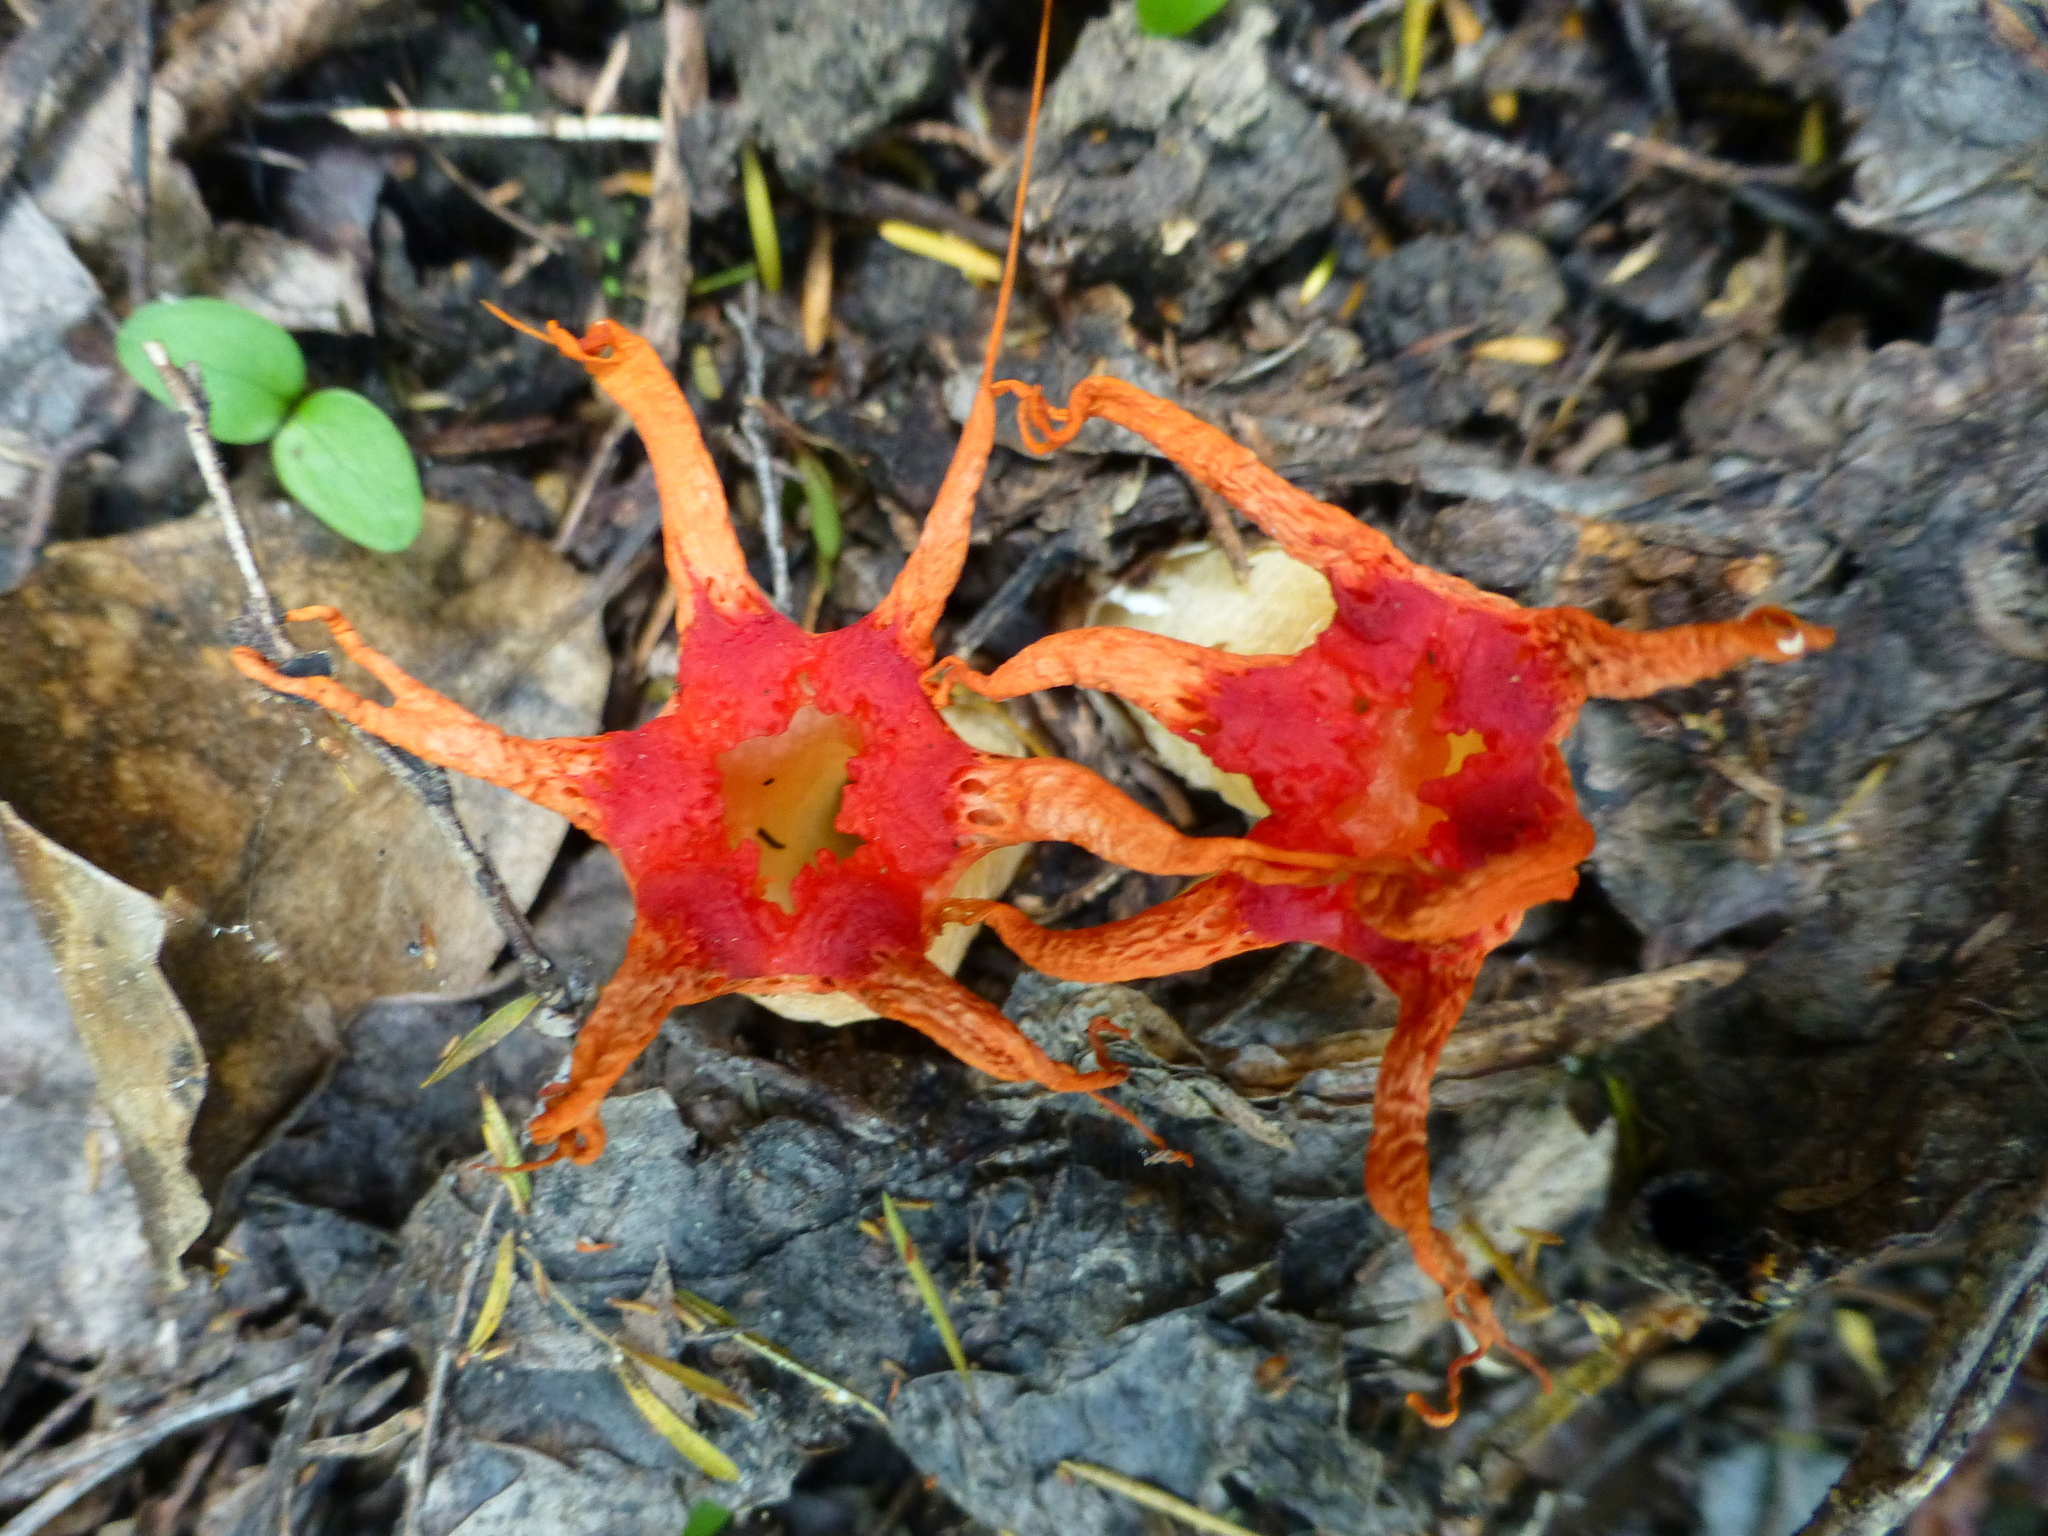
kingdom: Fungi
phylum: Basidiomycota
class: Agaricomycetes
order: Phallales
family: Phallaceae
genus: Aseroe
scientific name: Aseroe rubra
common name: Starfish fungus
